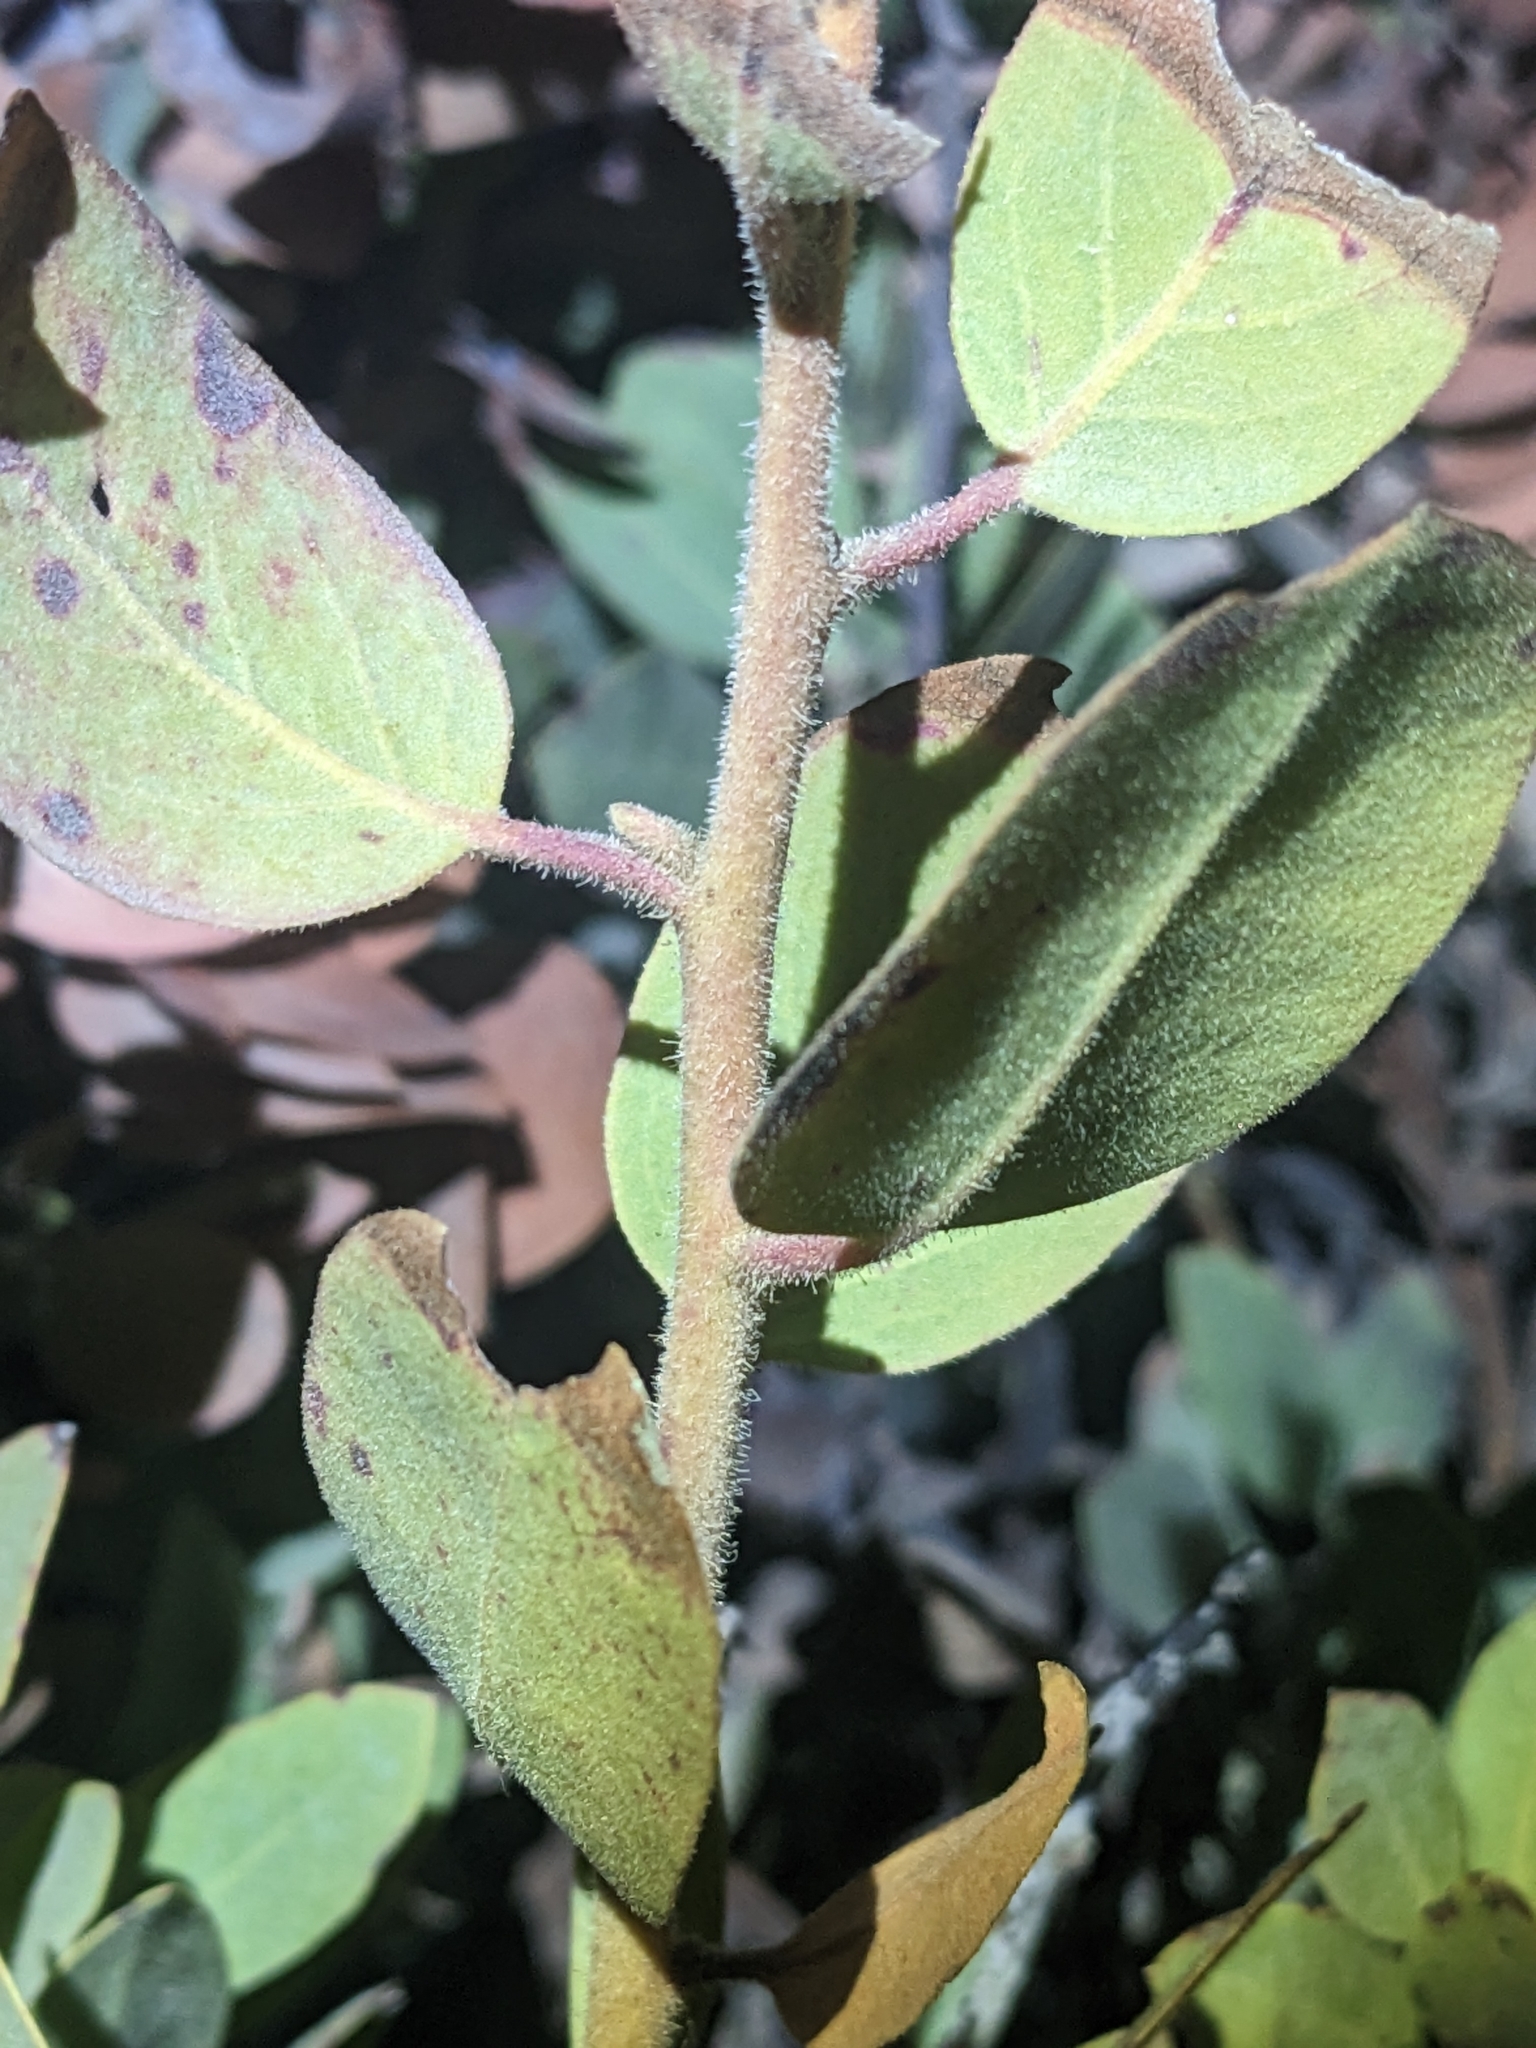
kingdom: Plantae
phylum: Tracheophyta
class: Magnoliopsida
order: Ericales
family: Ericaceae
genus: Arctostaphylos
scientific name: Arctostaphylos pringlei
